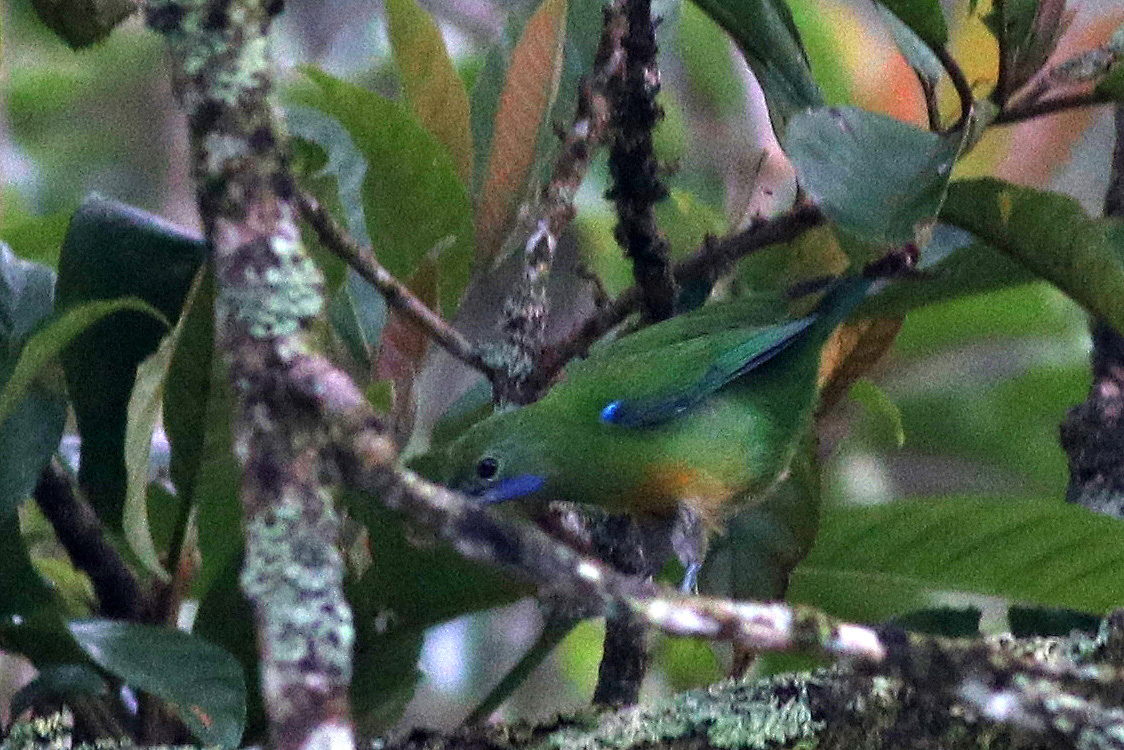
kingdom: Animalia
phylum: Chordata
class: Aves
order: Passeriformes
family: Chloropseidae
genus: Chloropsis
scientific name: Chloropsis hardwickii
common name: Orange-bellied leafbird
